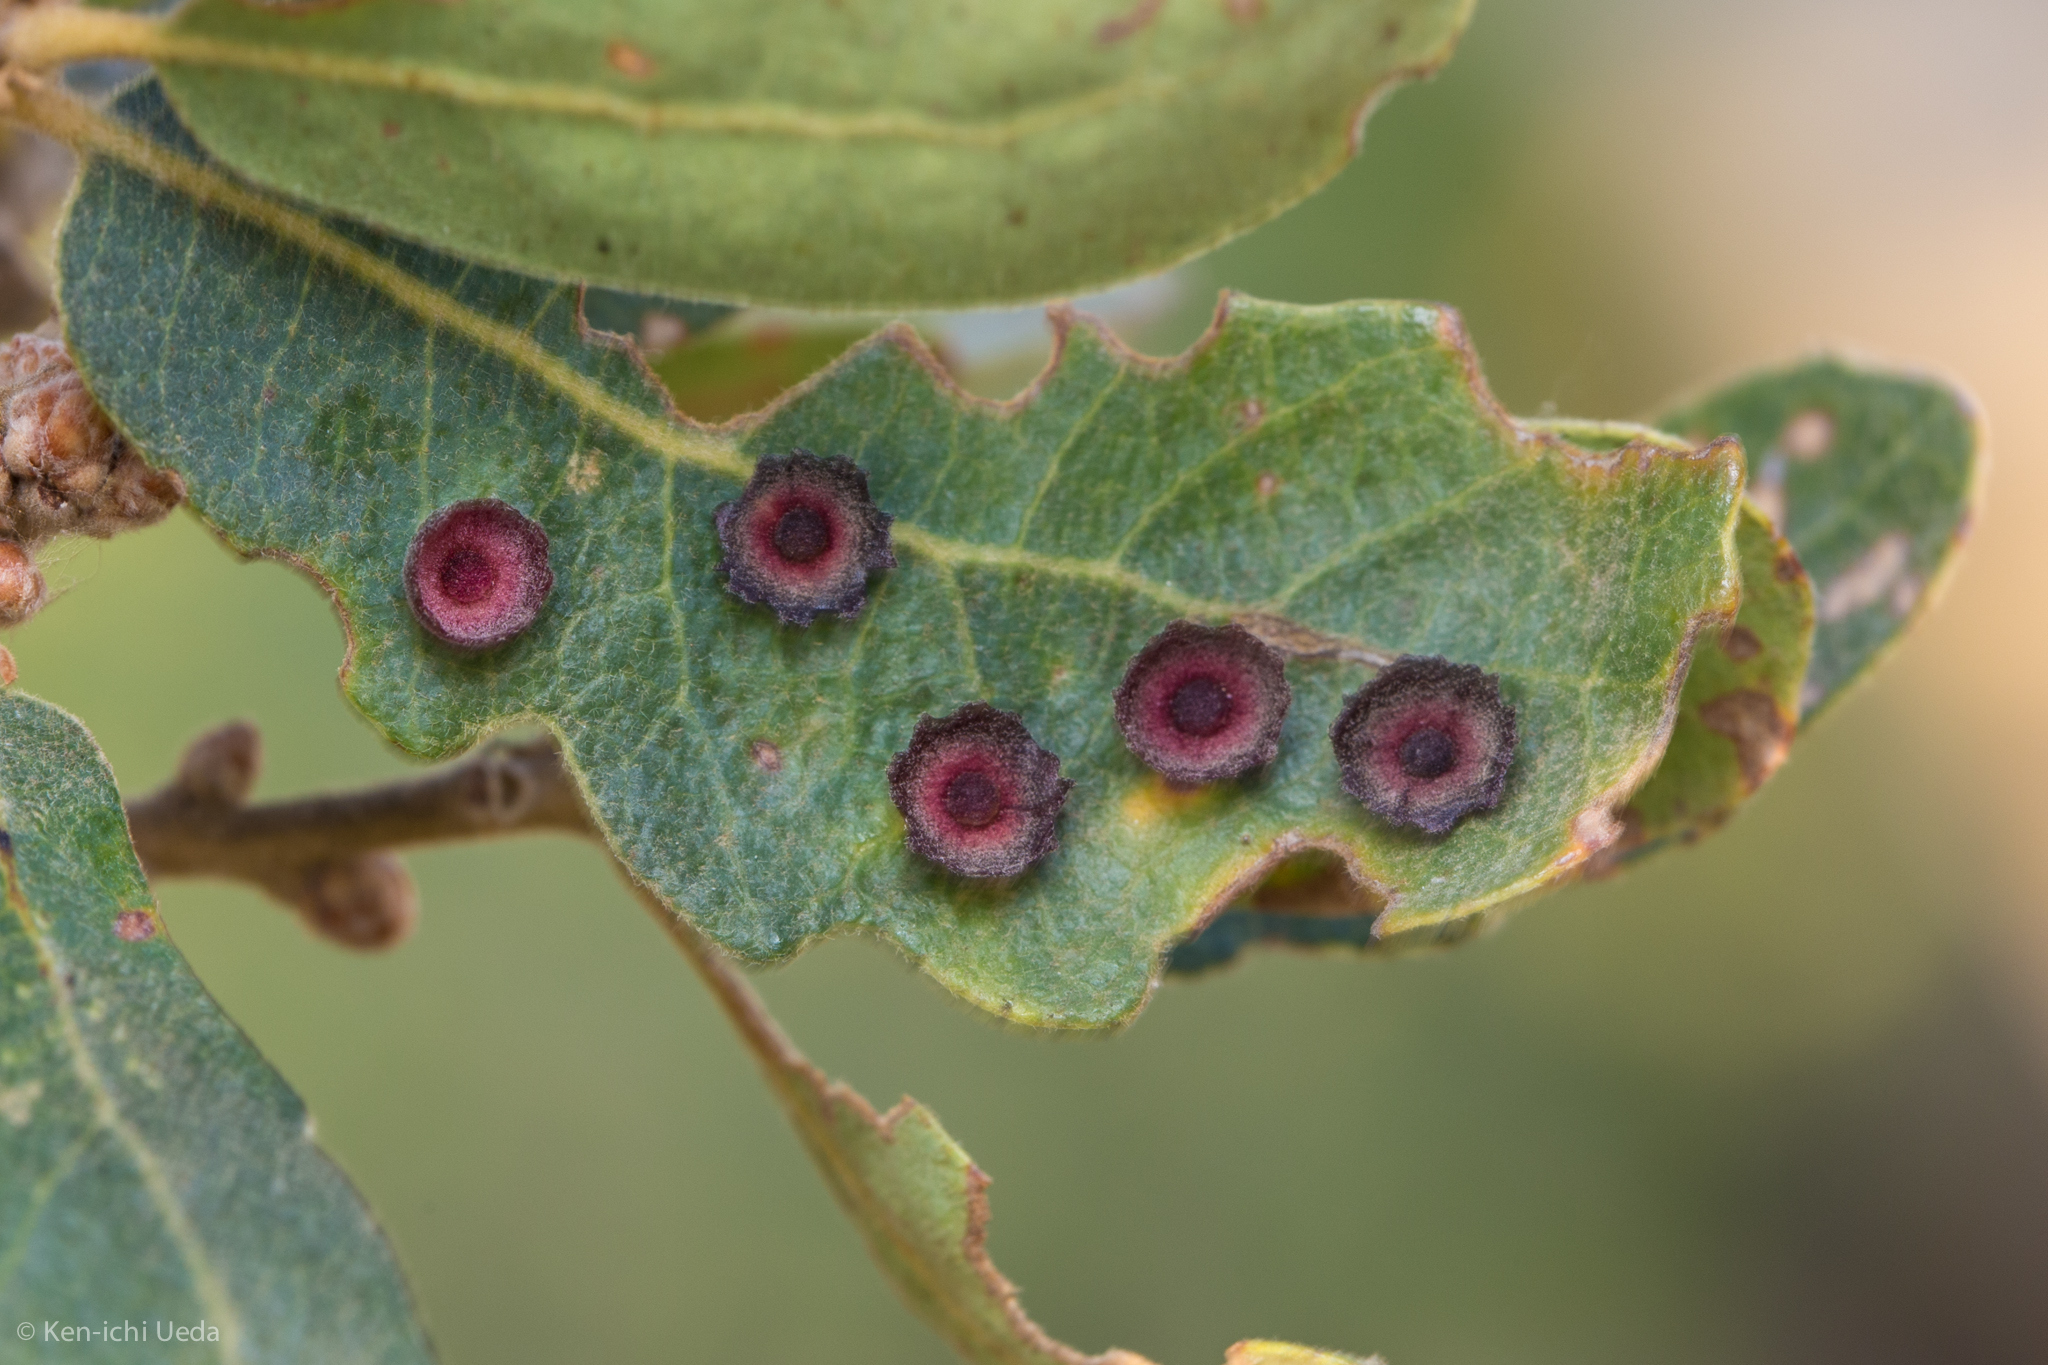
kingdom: Animalia
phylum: Arthropoda
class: Insecta
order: Hymenoptera
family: Cynipidae
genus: Andricus
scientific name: Andricus
